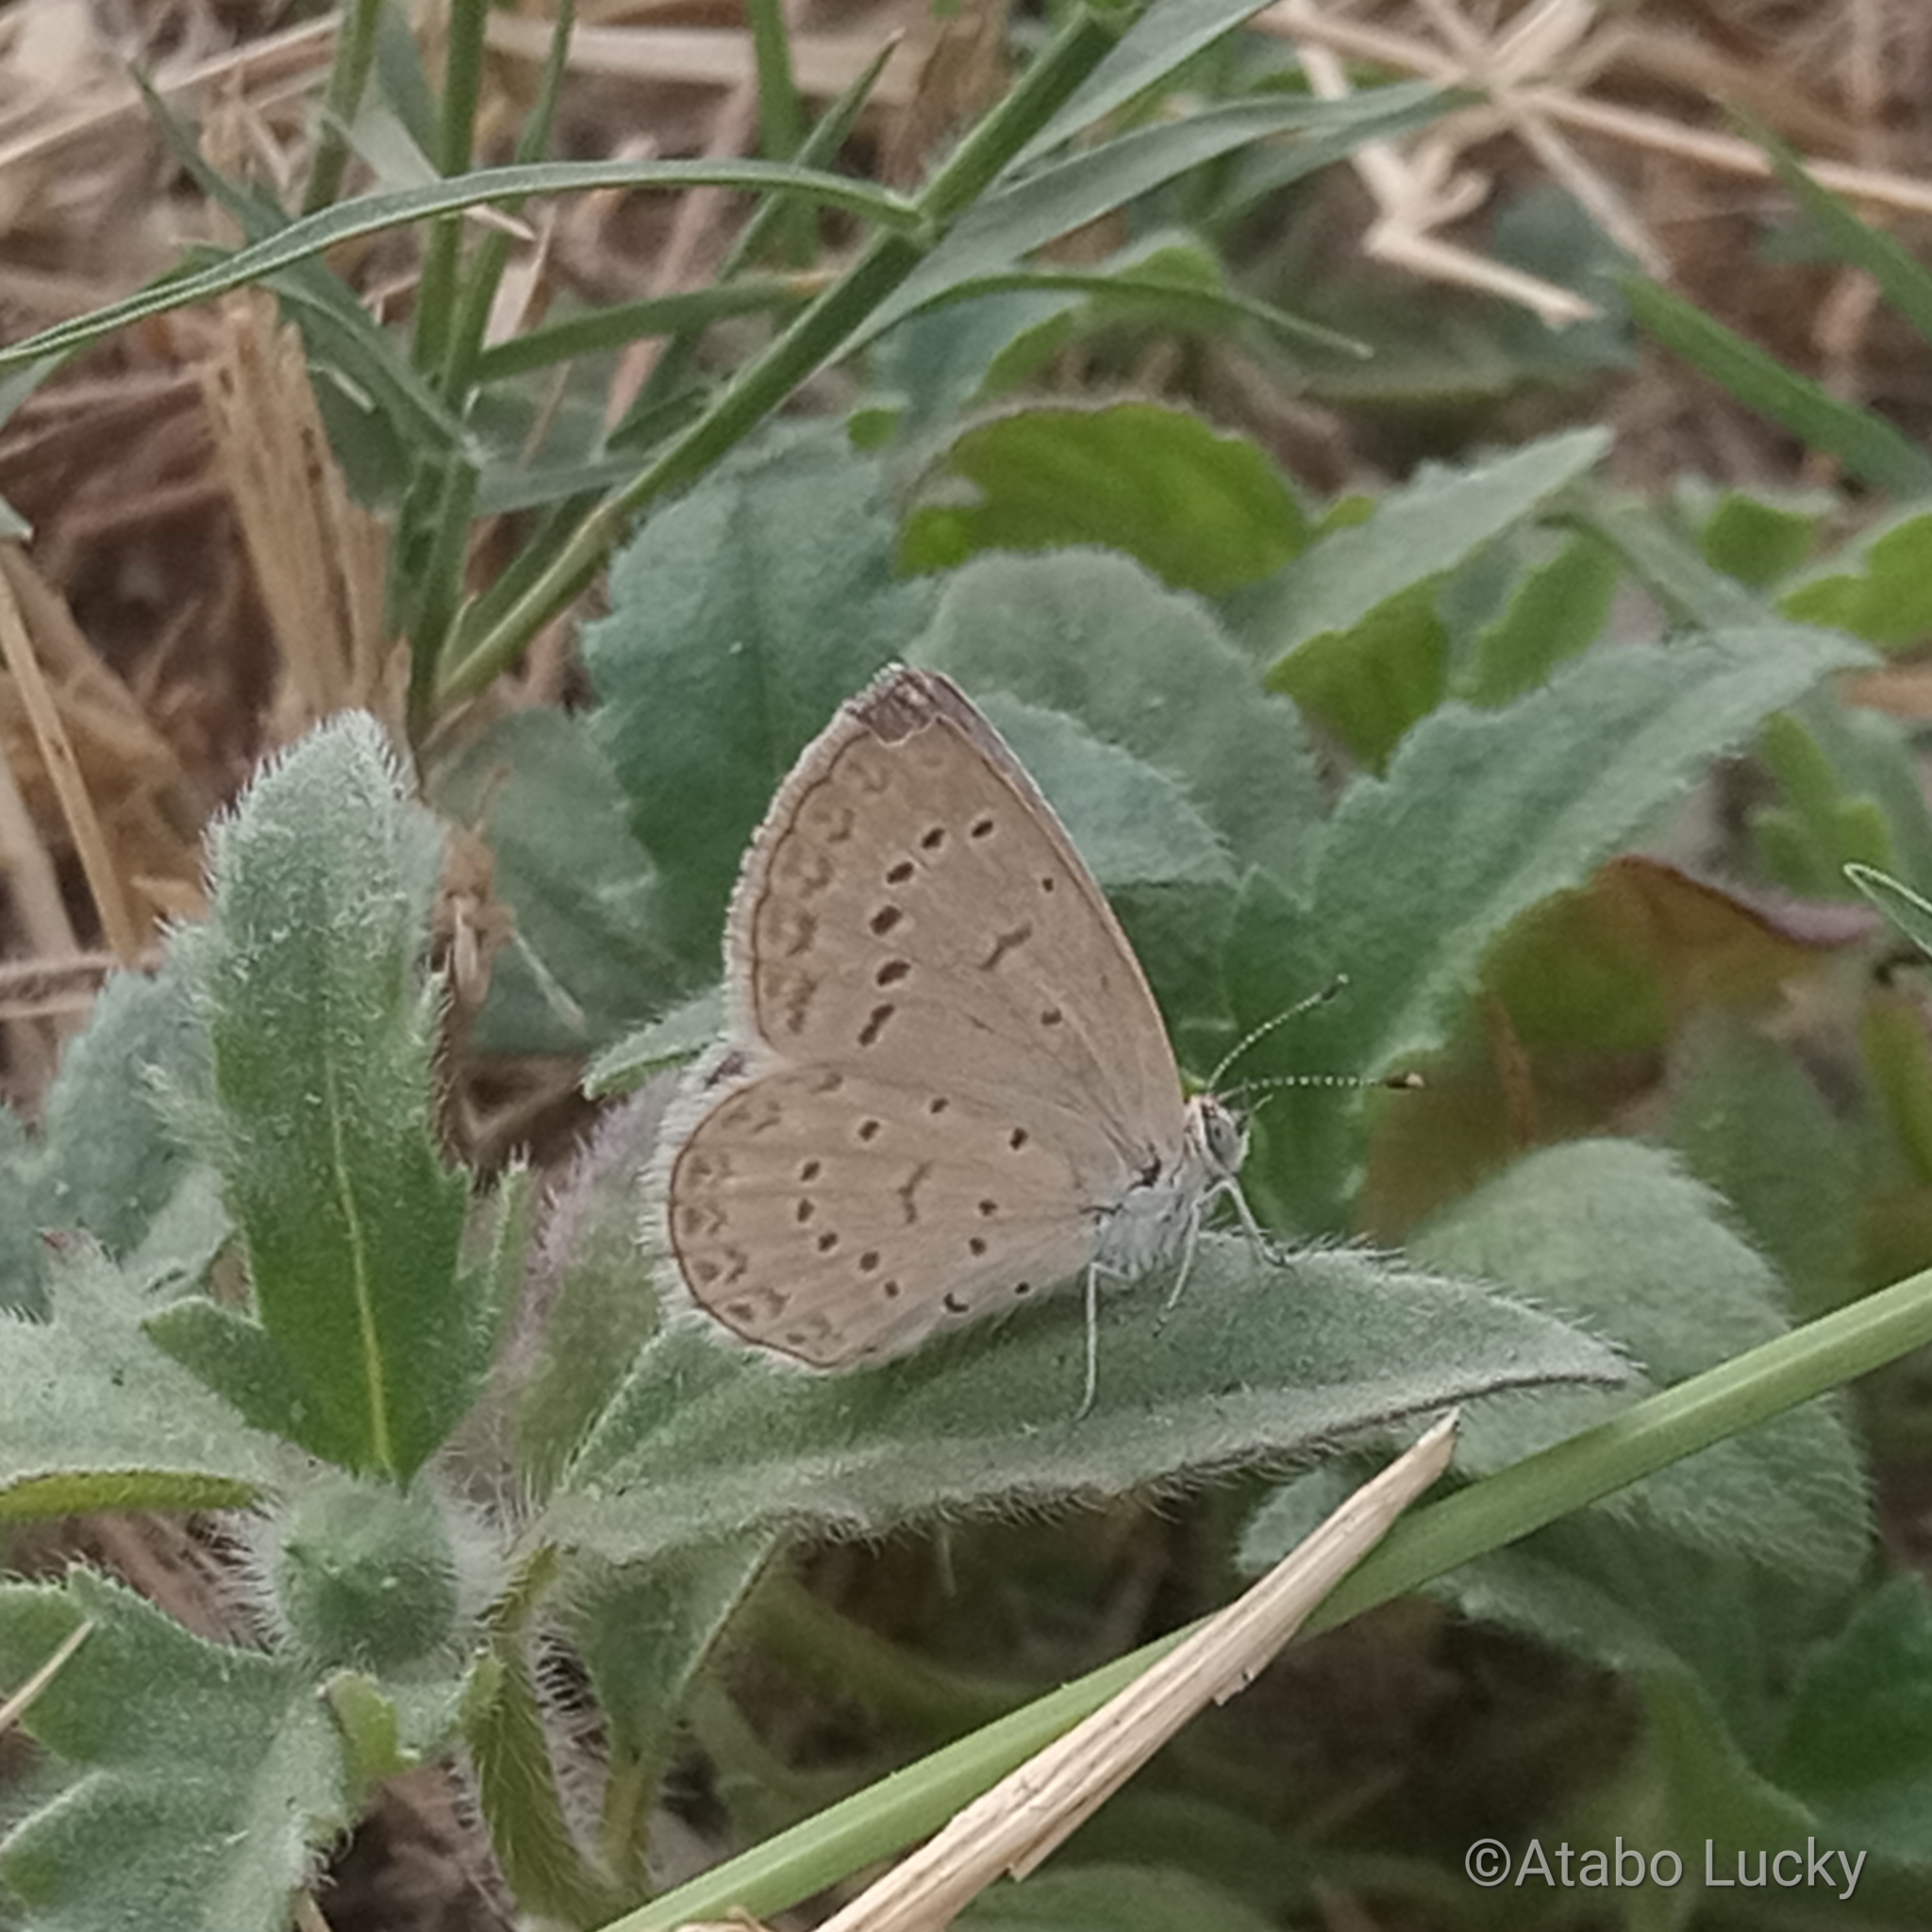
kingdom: Animalia
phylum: Arthropoda
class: Insecta
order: Lepidoptera
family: Lycaenidae
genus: Zizeeria
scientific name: Zizeeria knysna
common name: African grass blue
